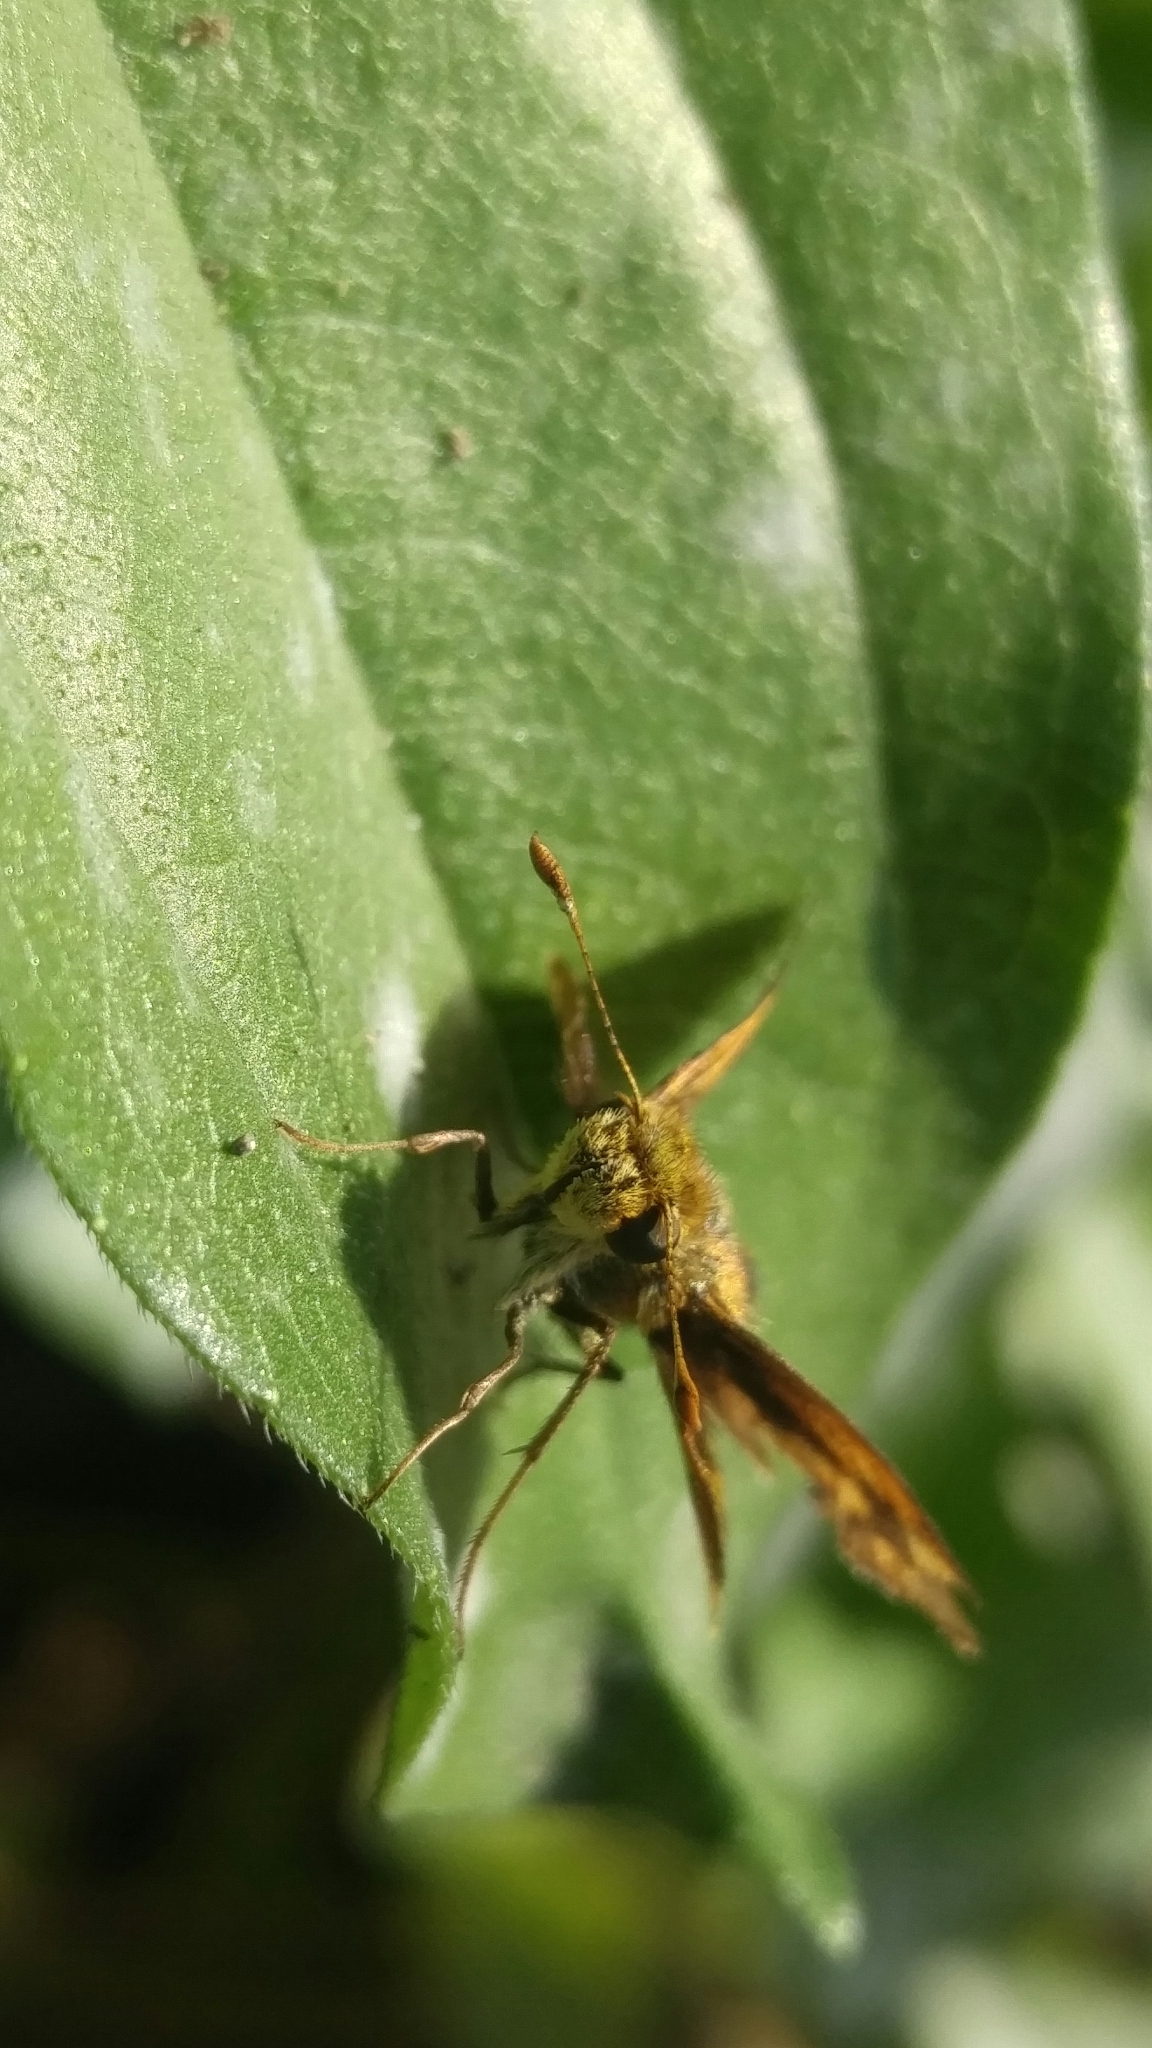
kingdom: Animalia
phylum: Arthropoda
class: Insecta
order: Lepidoptera
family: Hesperiidae
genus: Polites
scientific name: Polites coras
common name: Peck's skipper
